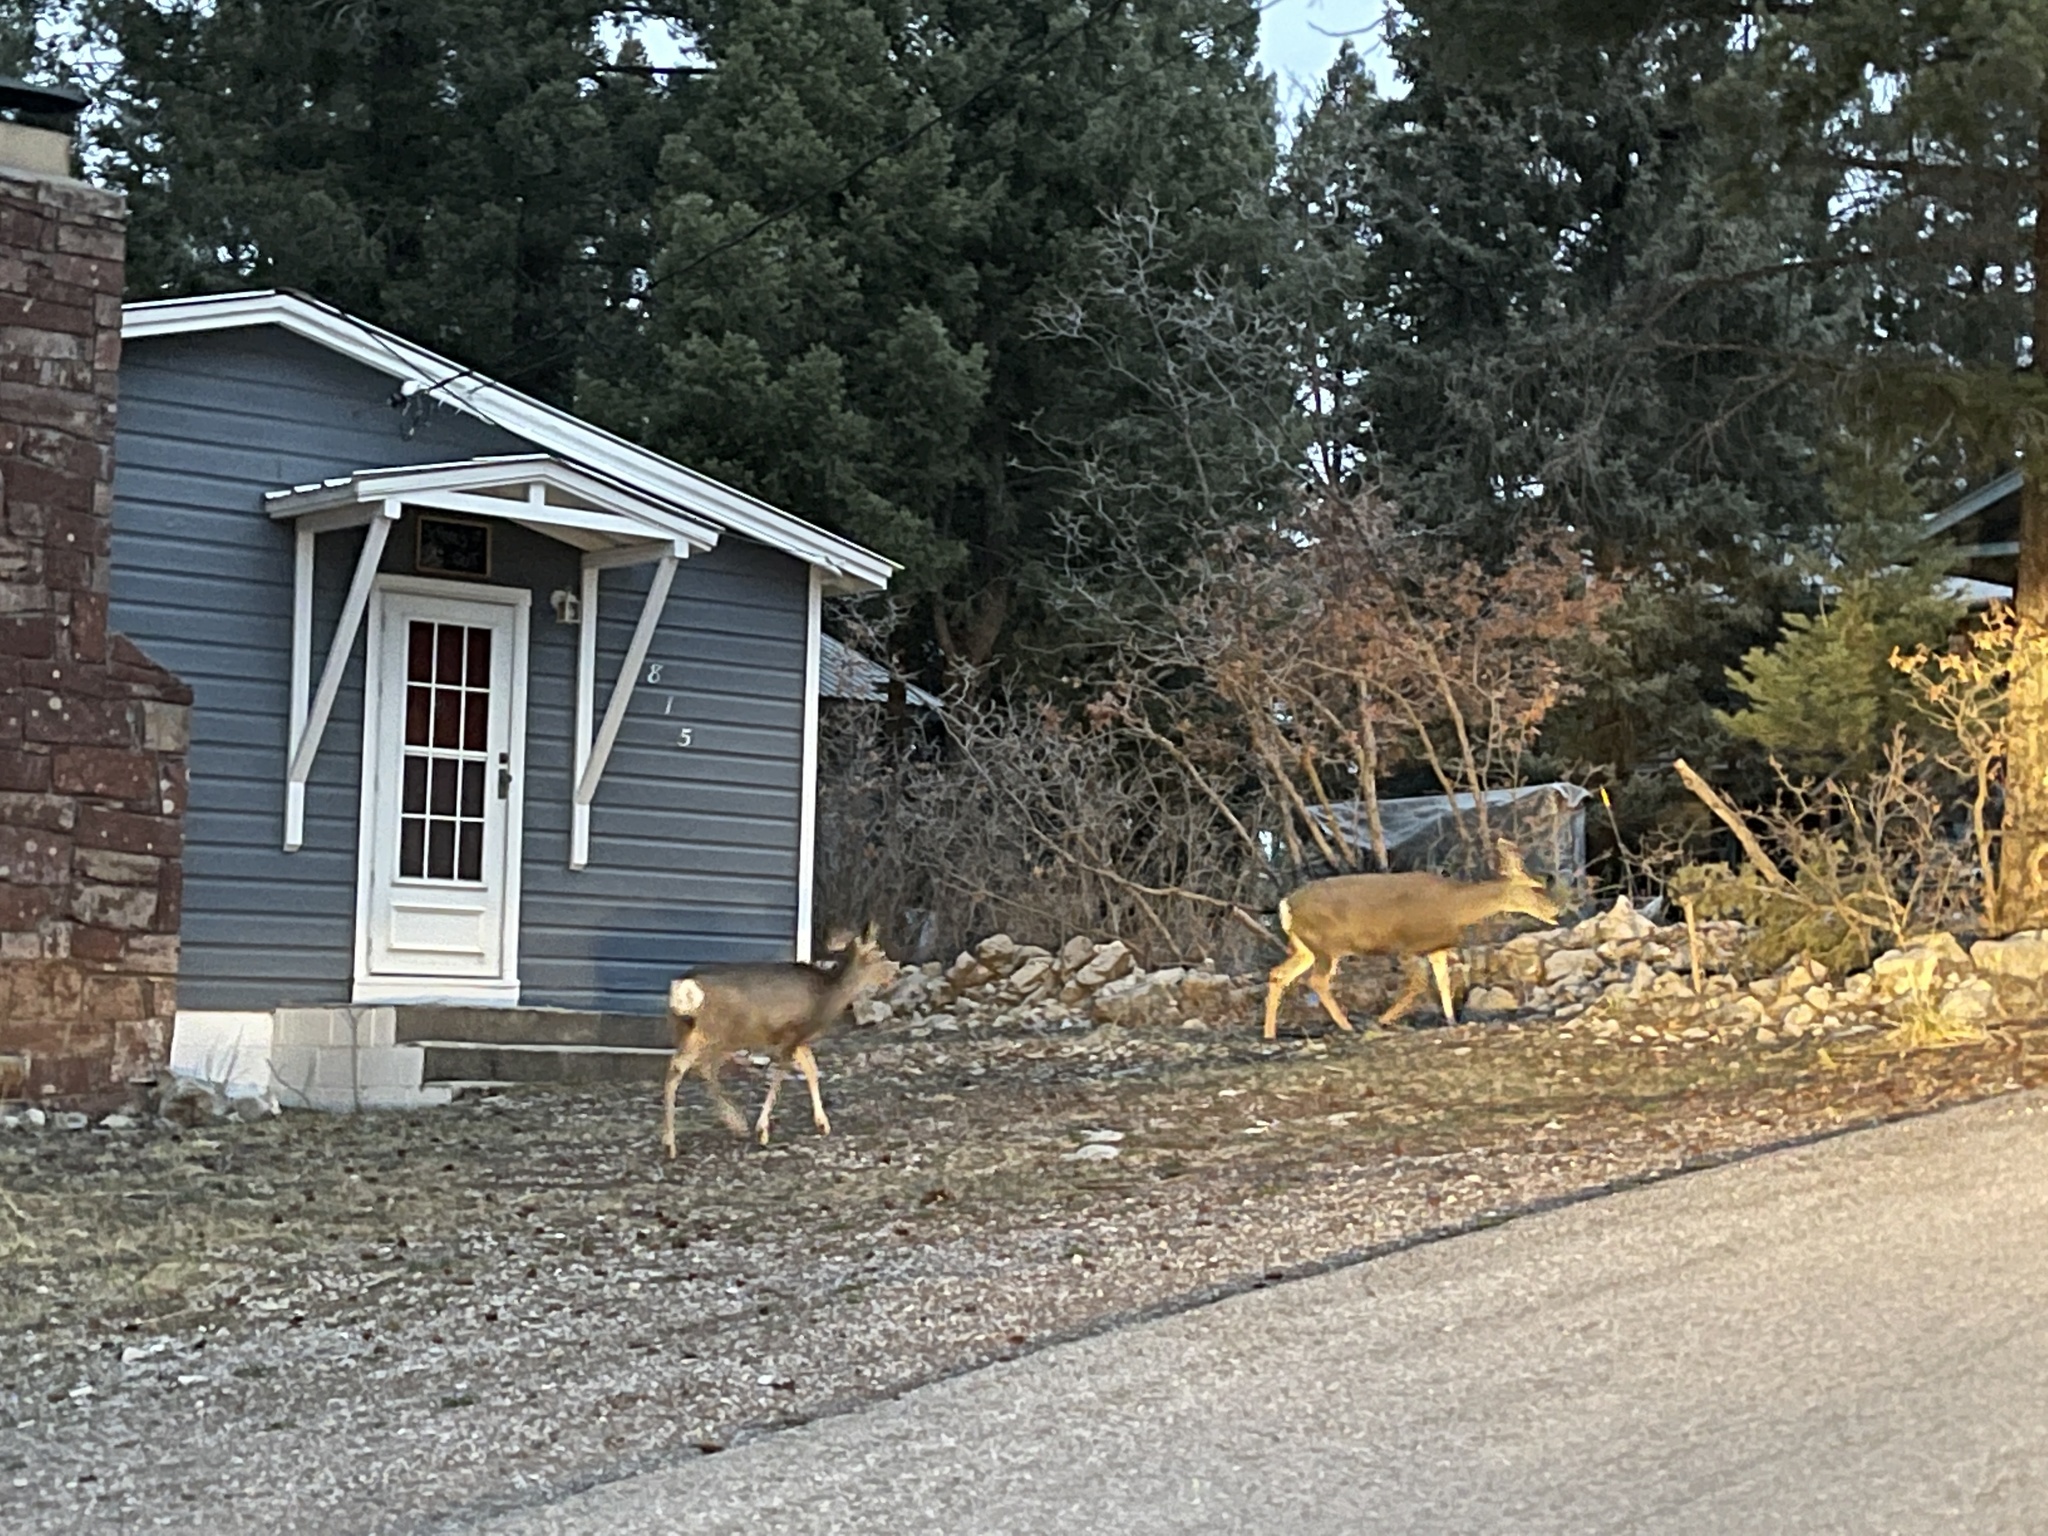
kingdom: Animalia
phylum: Chordata
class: Mammalia
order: Artiodactyla
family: Cervidae
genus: Odocoileus
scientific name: Odocoileus hemionus
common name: Mule deer
